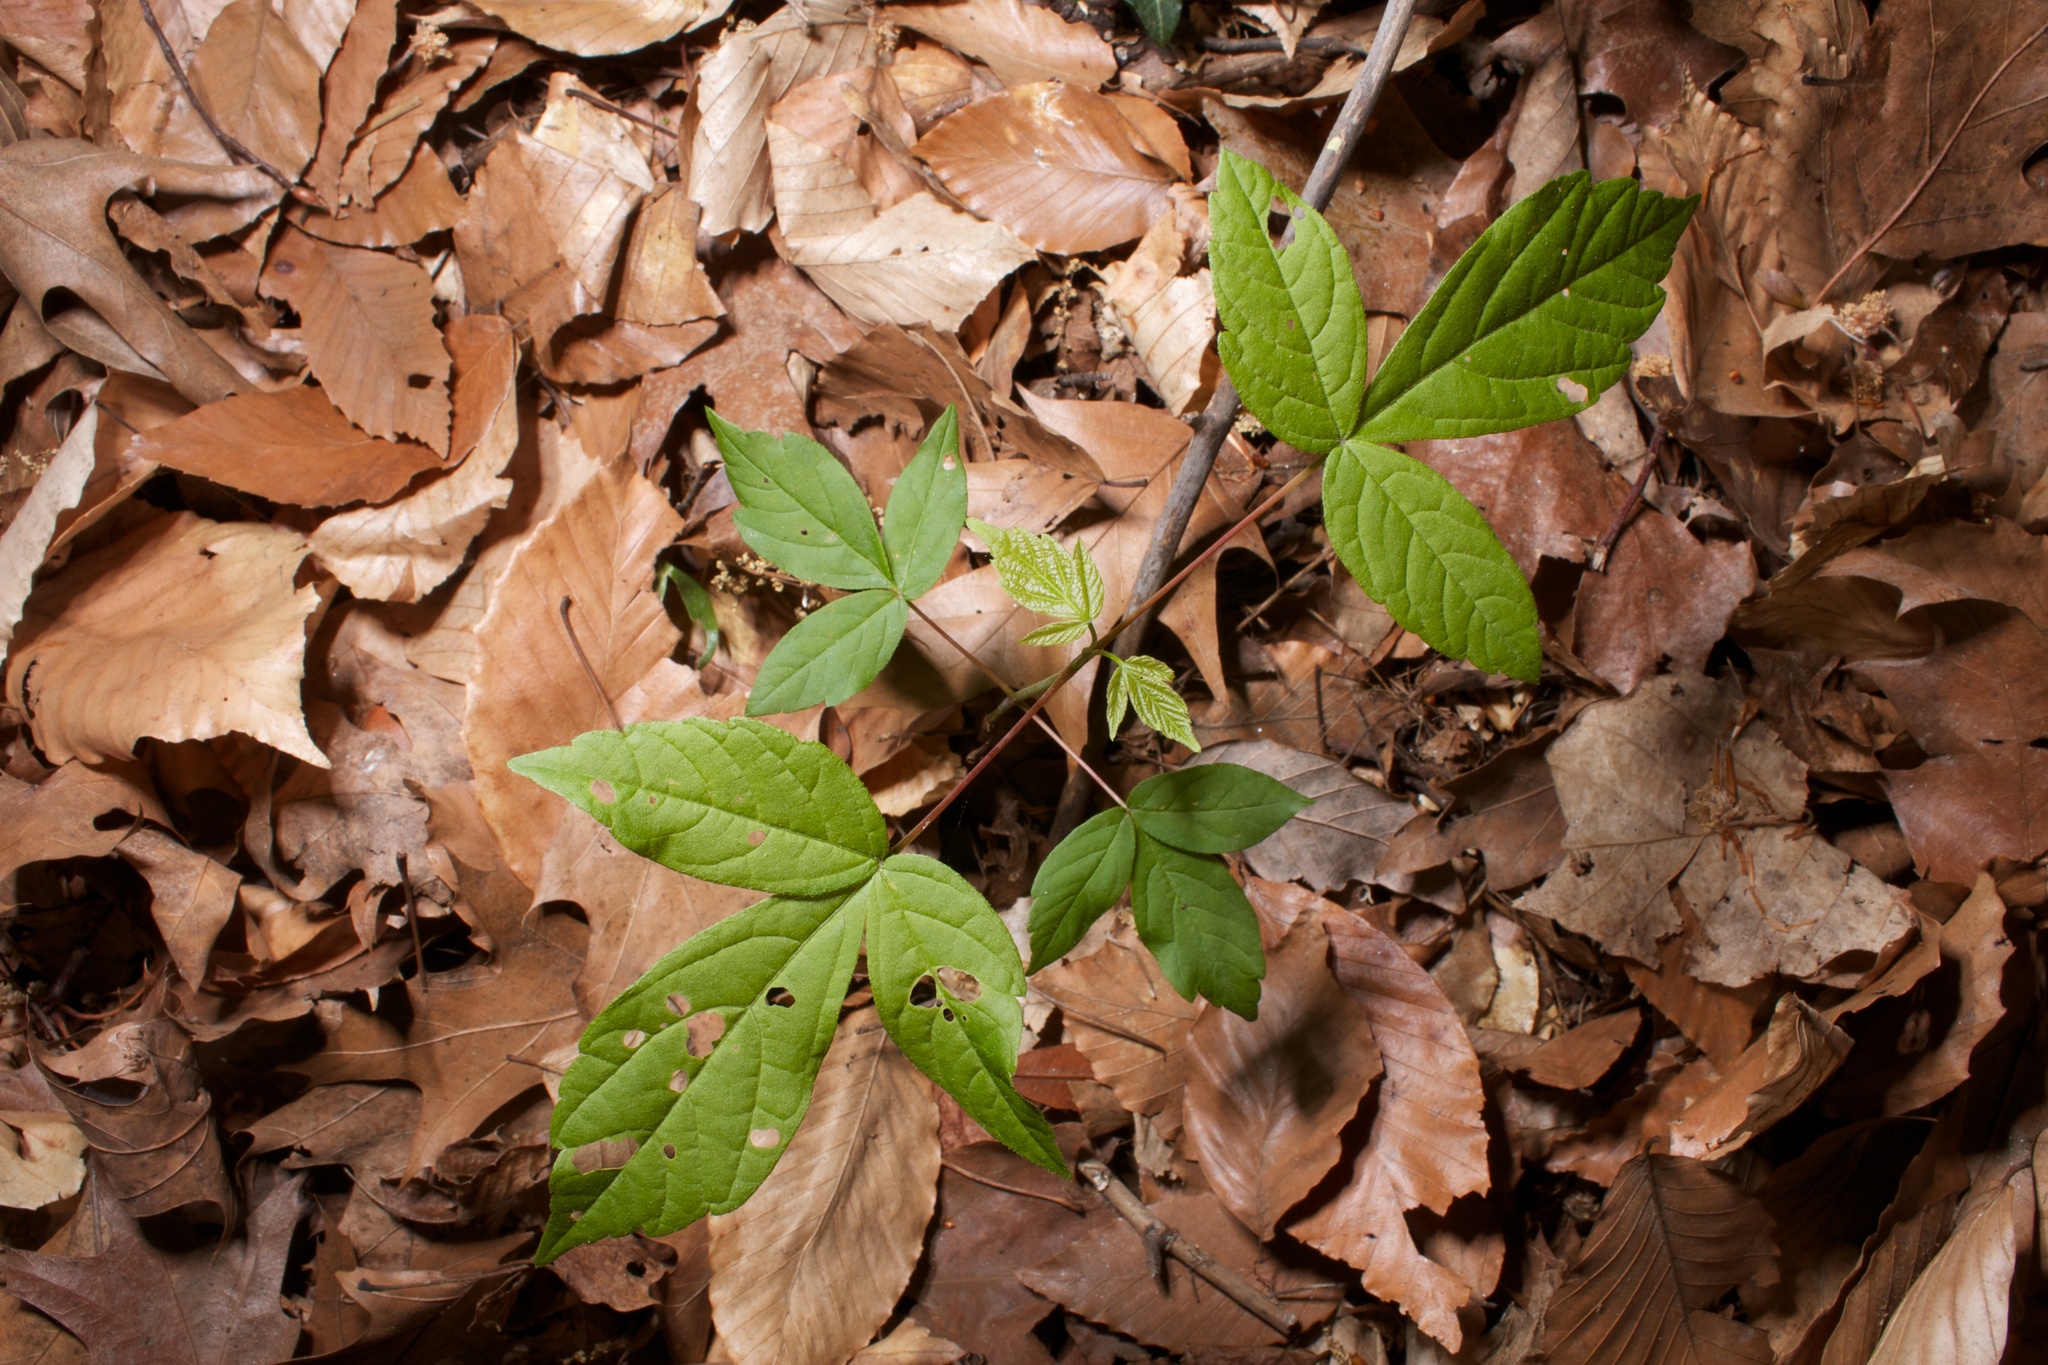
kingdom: Plantae
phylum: Tracheophyta
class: Magnoliopsida
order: Sapindales
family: Sapindaceae
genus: Acer
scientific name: Acer negundo
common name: Ashleaf maple
